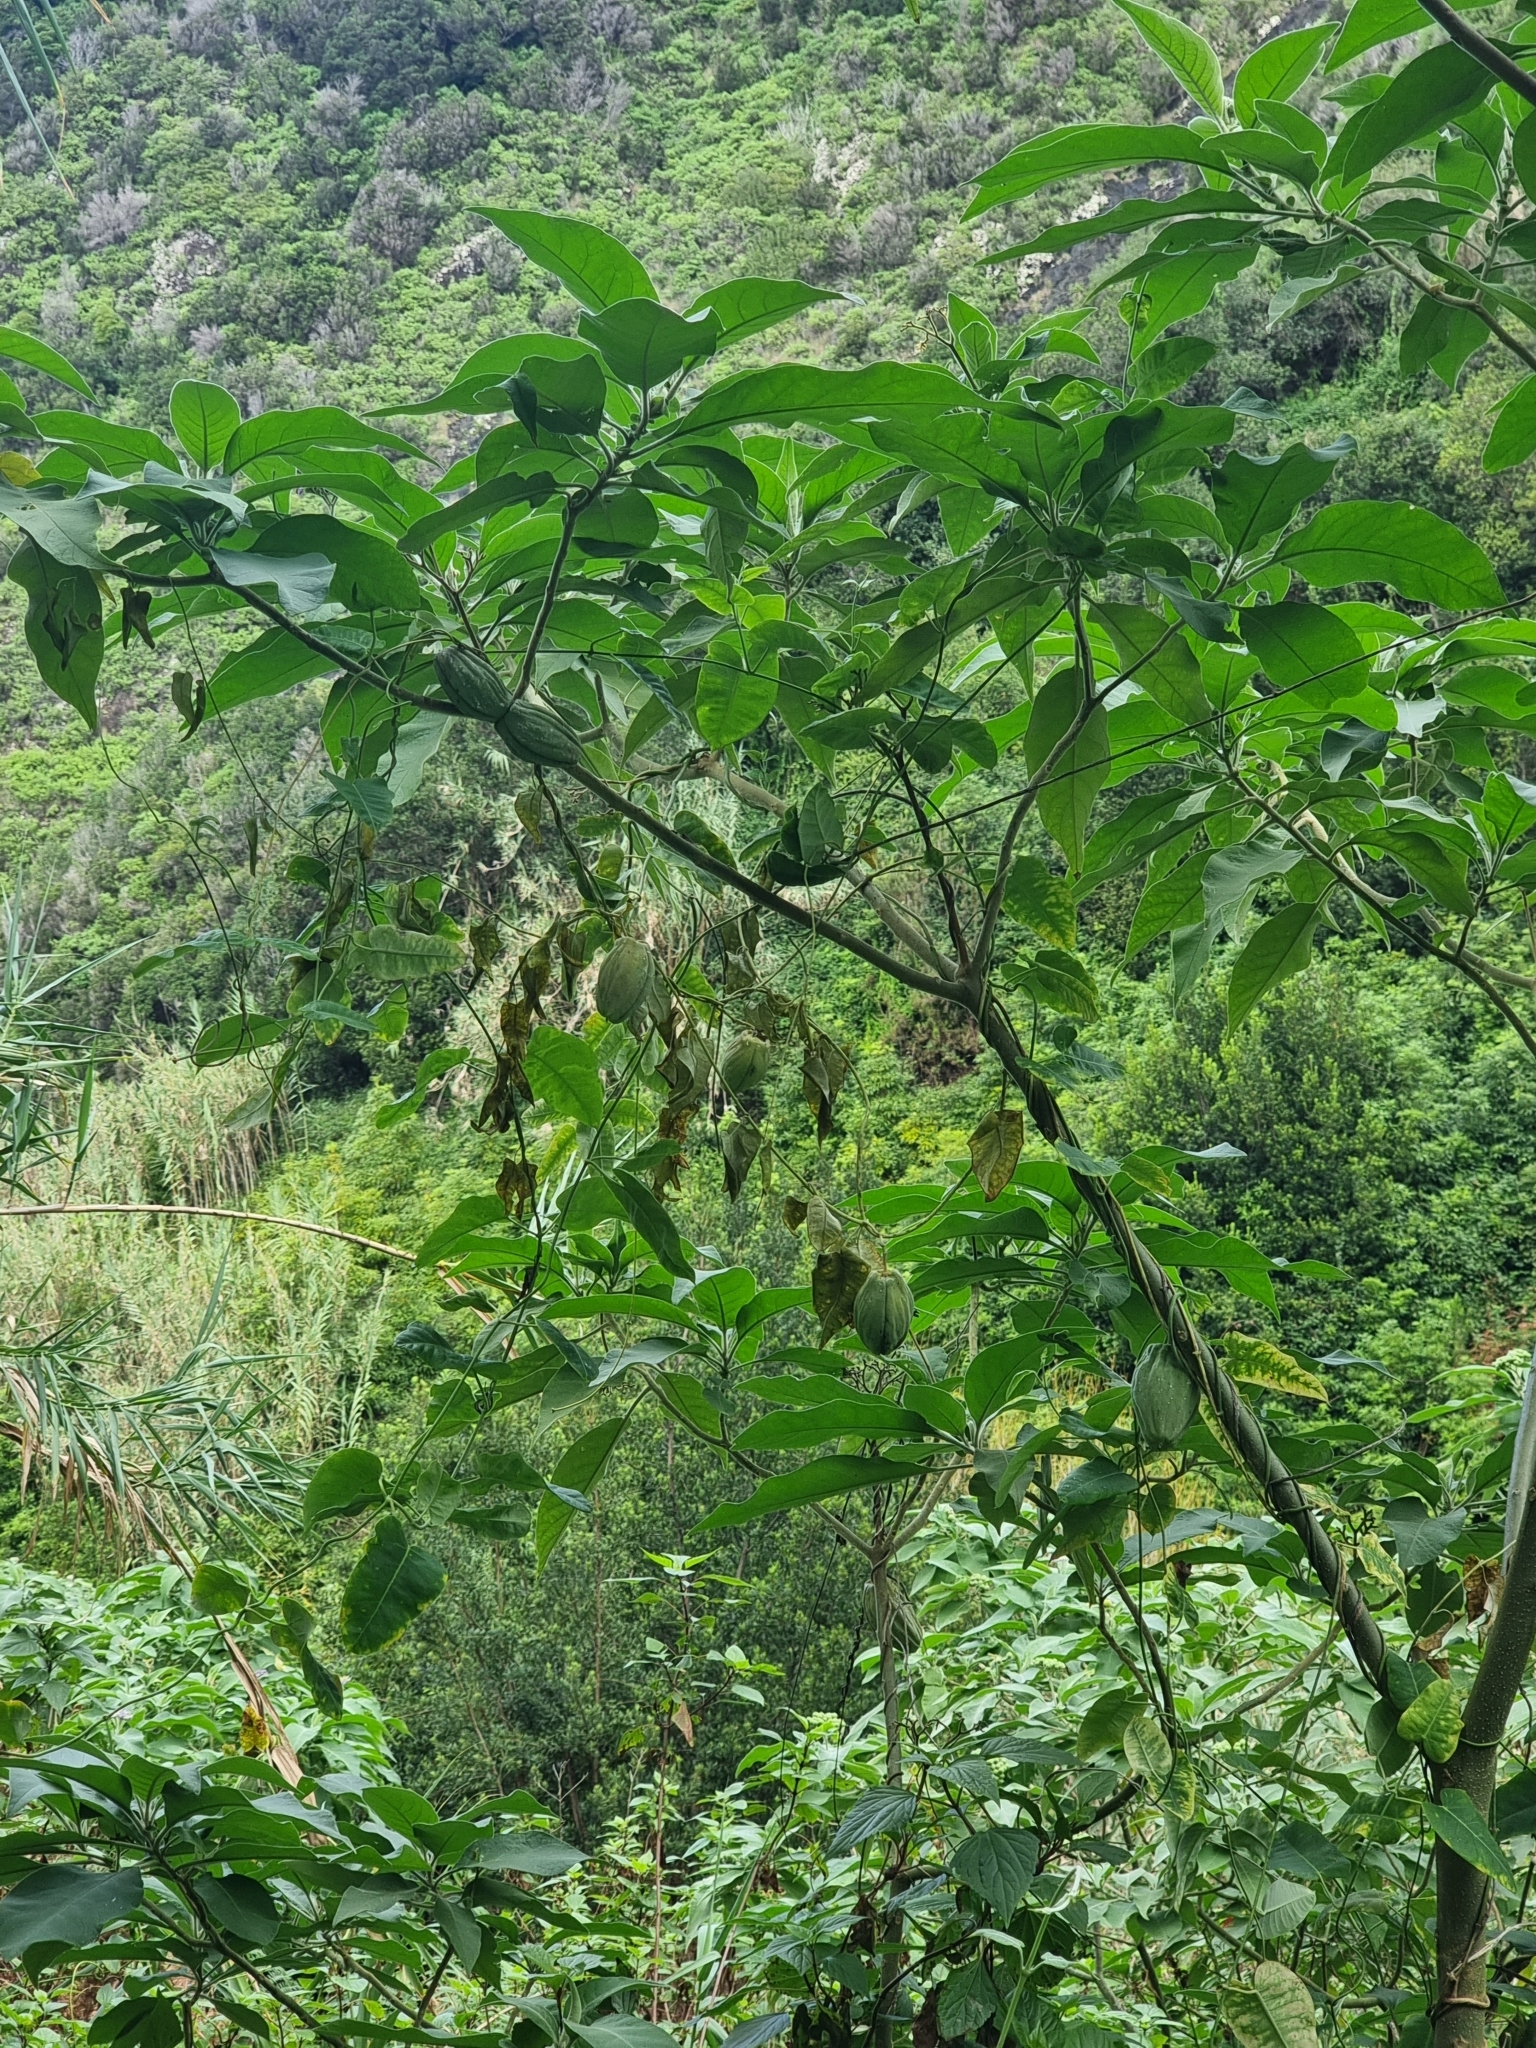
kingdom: Plantae
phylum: Tracheophyta
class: Magnoliopsida
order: Gentianales
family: Apocynaceae
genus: Araujia
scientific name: Araujia sericifera
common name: White bladderflower
